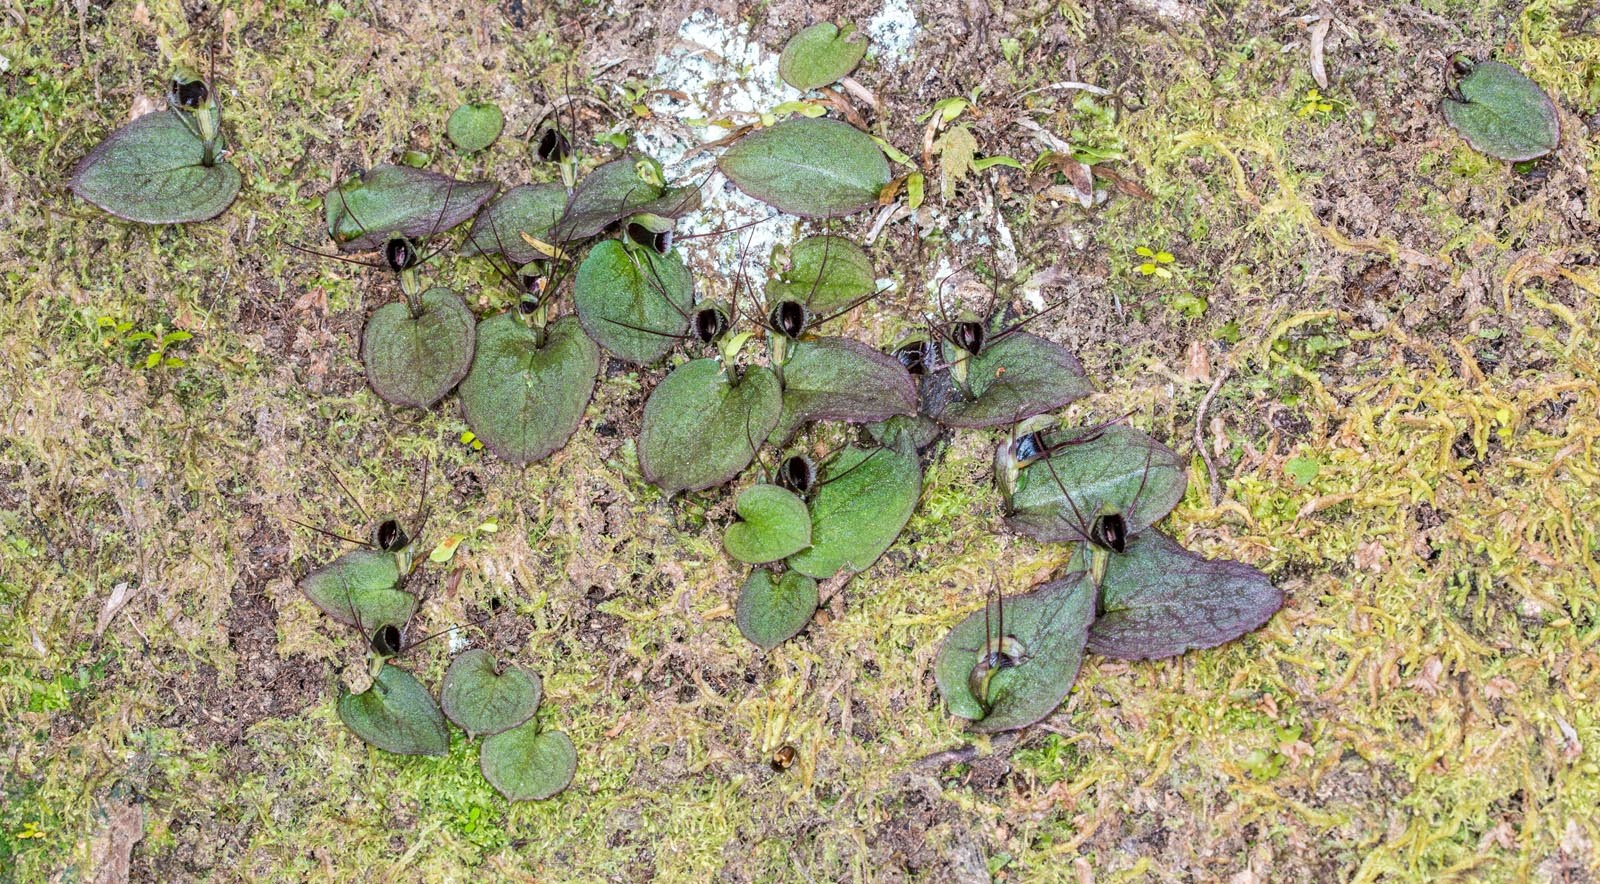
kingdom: Plantae
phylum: Tracheophyta
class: Liliopsida
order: Asparagales
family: Orchidaceae
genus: Corybas
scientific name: Corybas oblongus
